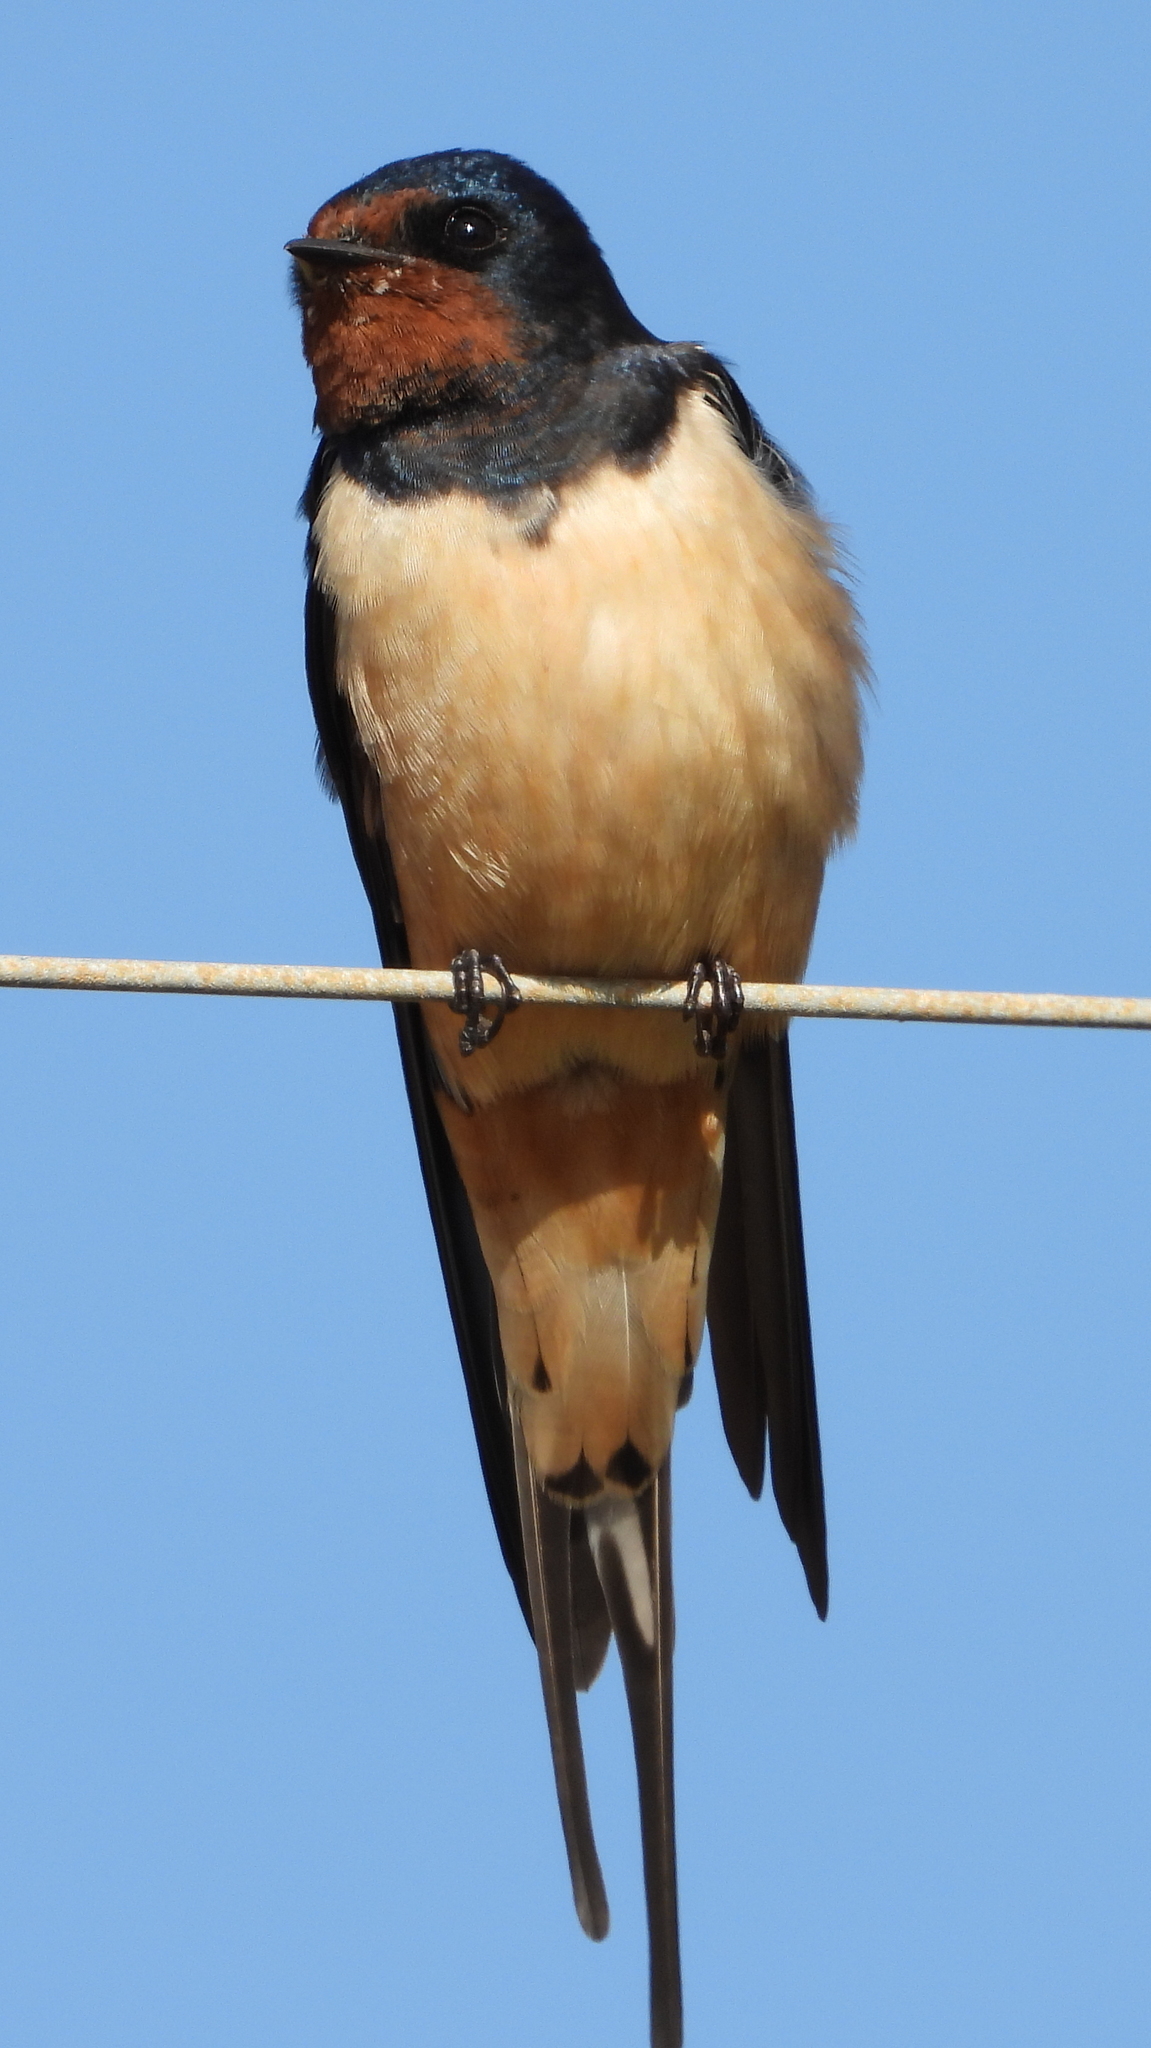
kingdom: Animalia
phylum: Chordata
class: Aves
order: Passeriformes
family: Hirundinidae
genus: Hirundo
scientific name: Hirundo rustica
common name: Barn swallow
